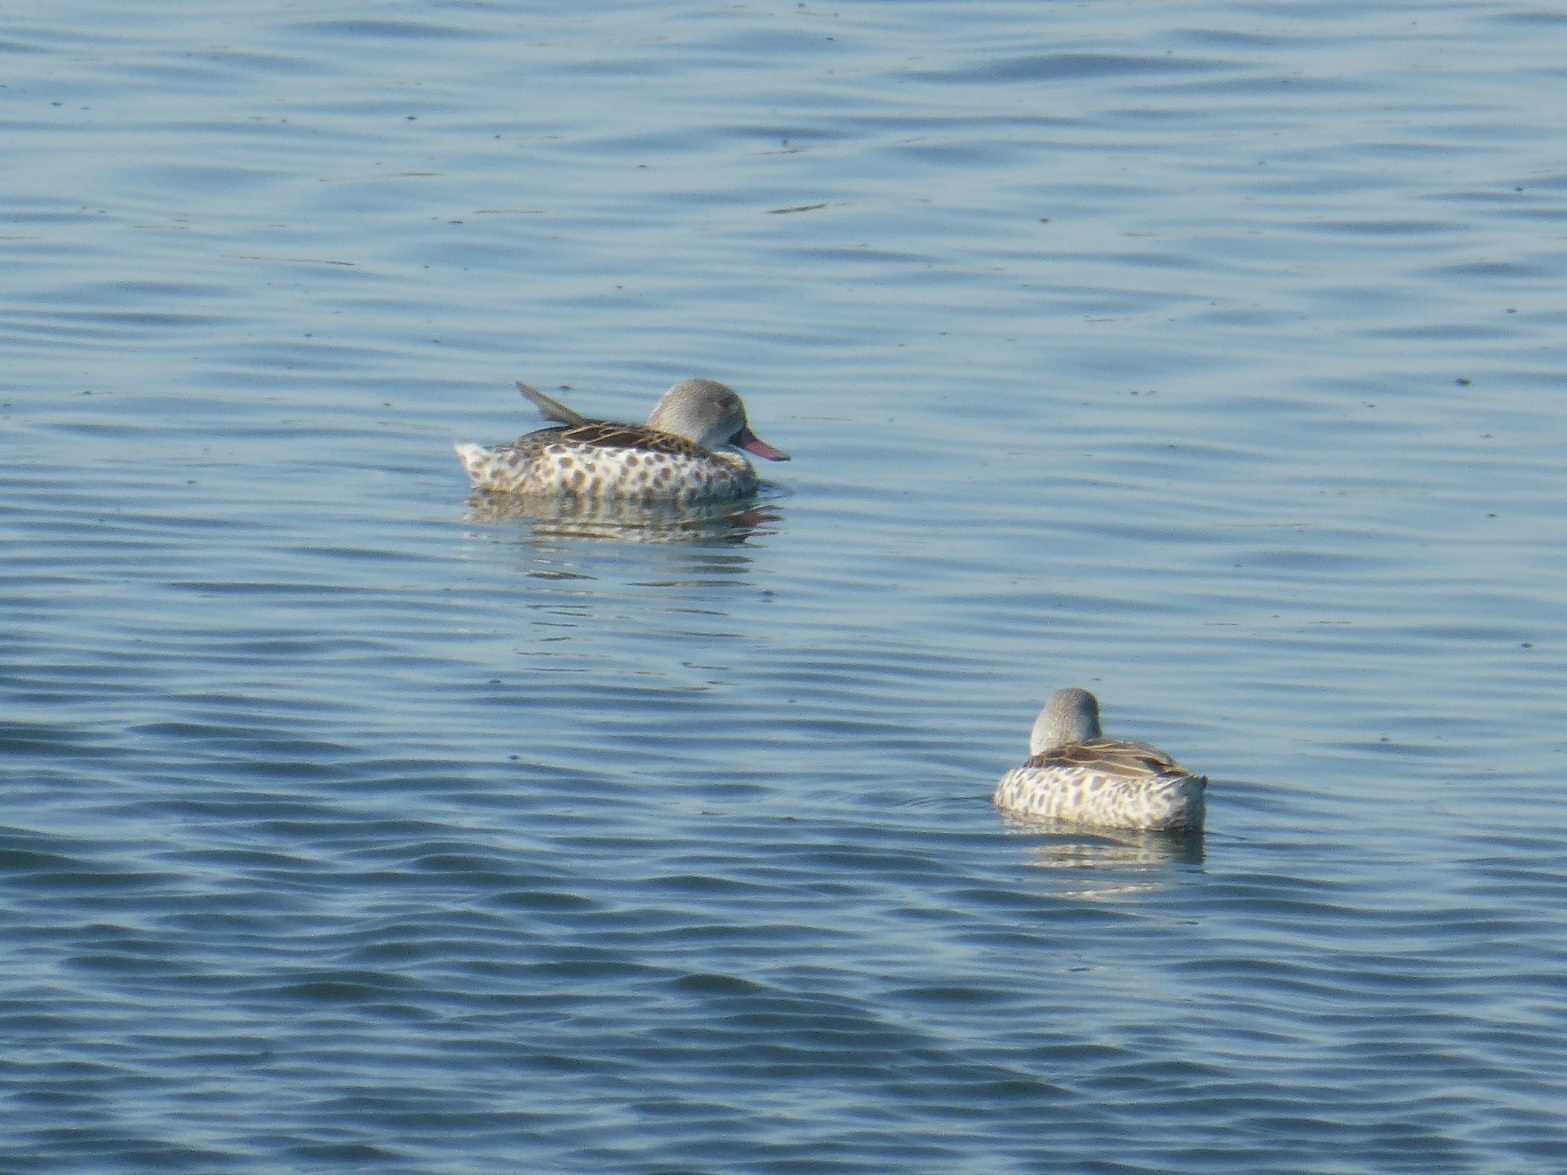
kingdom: Animalia
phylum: Chordata
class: Aves
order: Anseriformes
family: Anatidae
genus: Anas
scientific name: Anas capensis
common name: Cape teal
